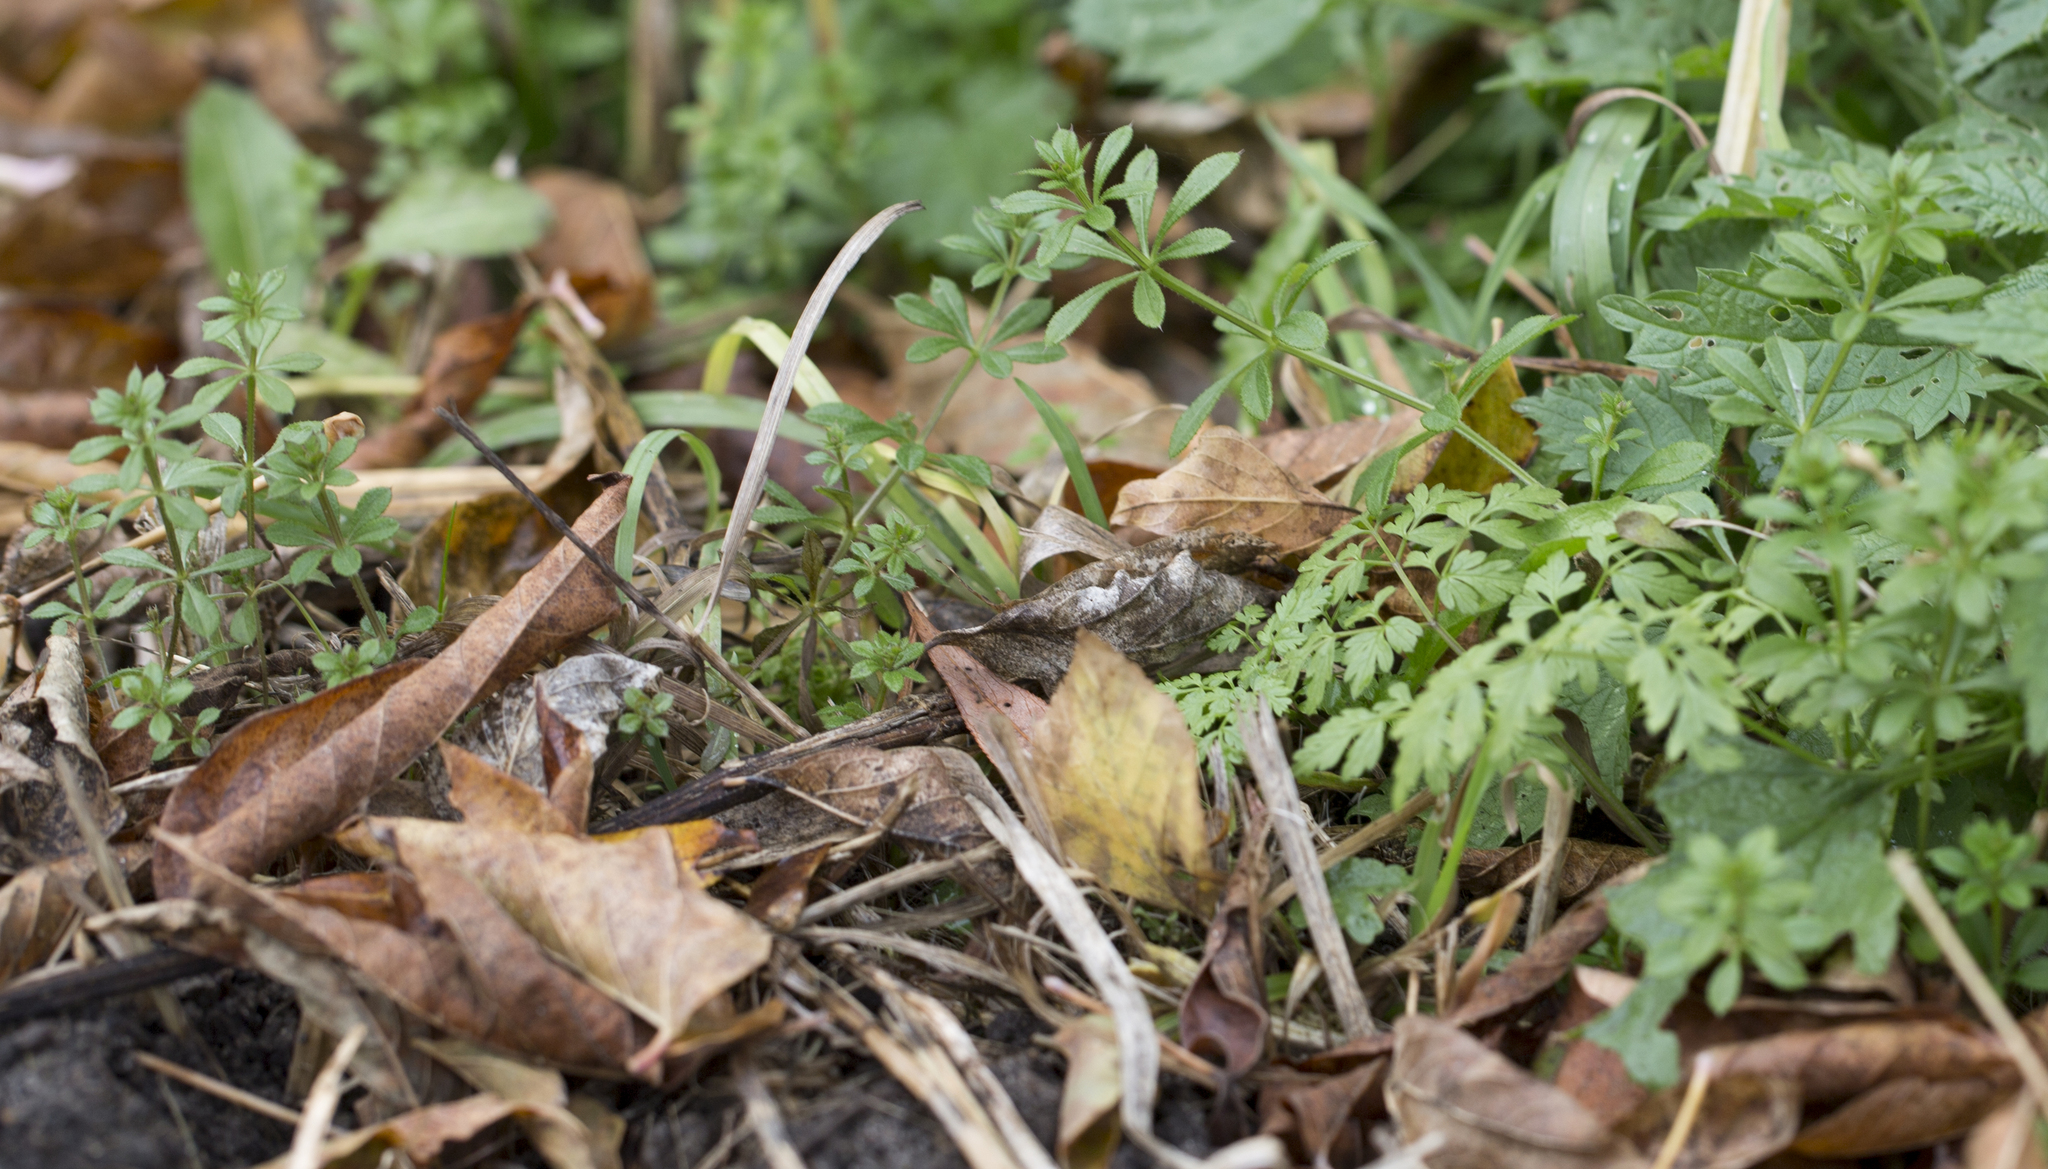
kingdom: Plantae
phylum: Tracheophyta
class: Magnoliopsida
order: Gentianales
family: Rubiaceae
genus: Galium
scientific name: Galium aparine
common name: Cleavers
